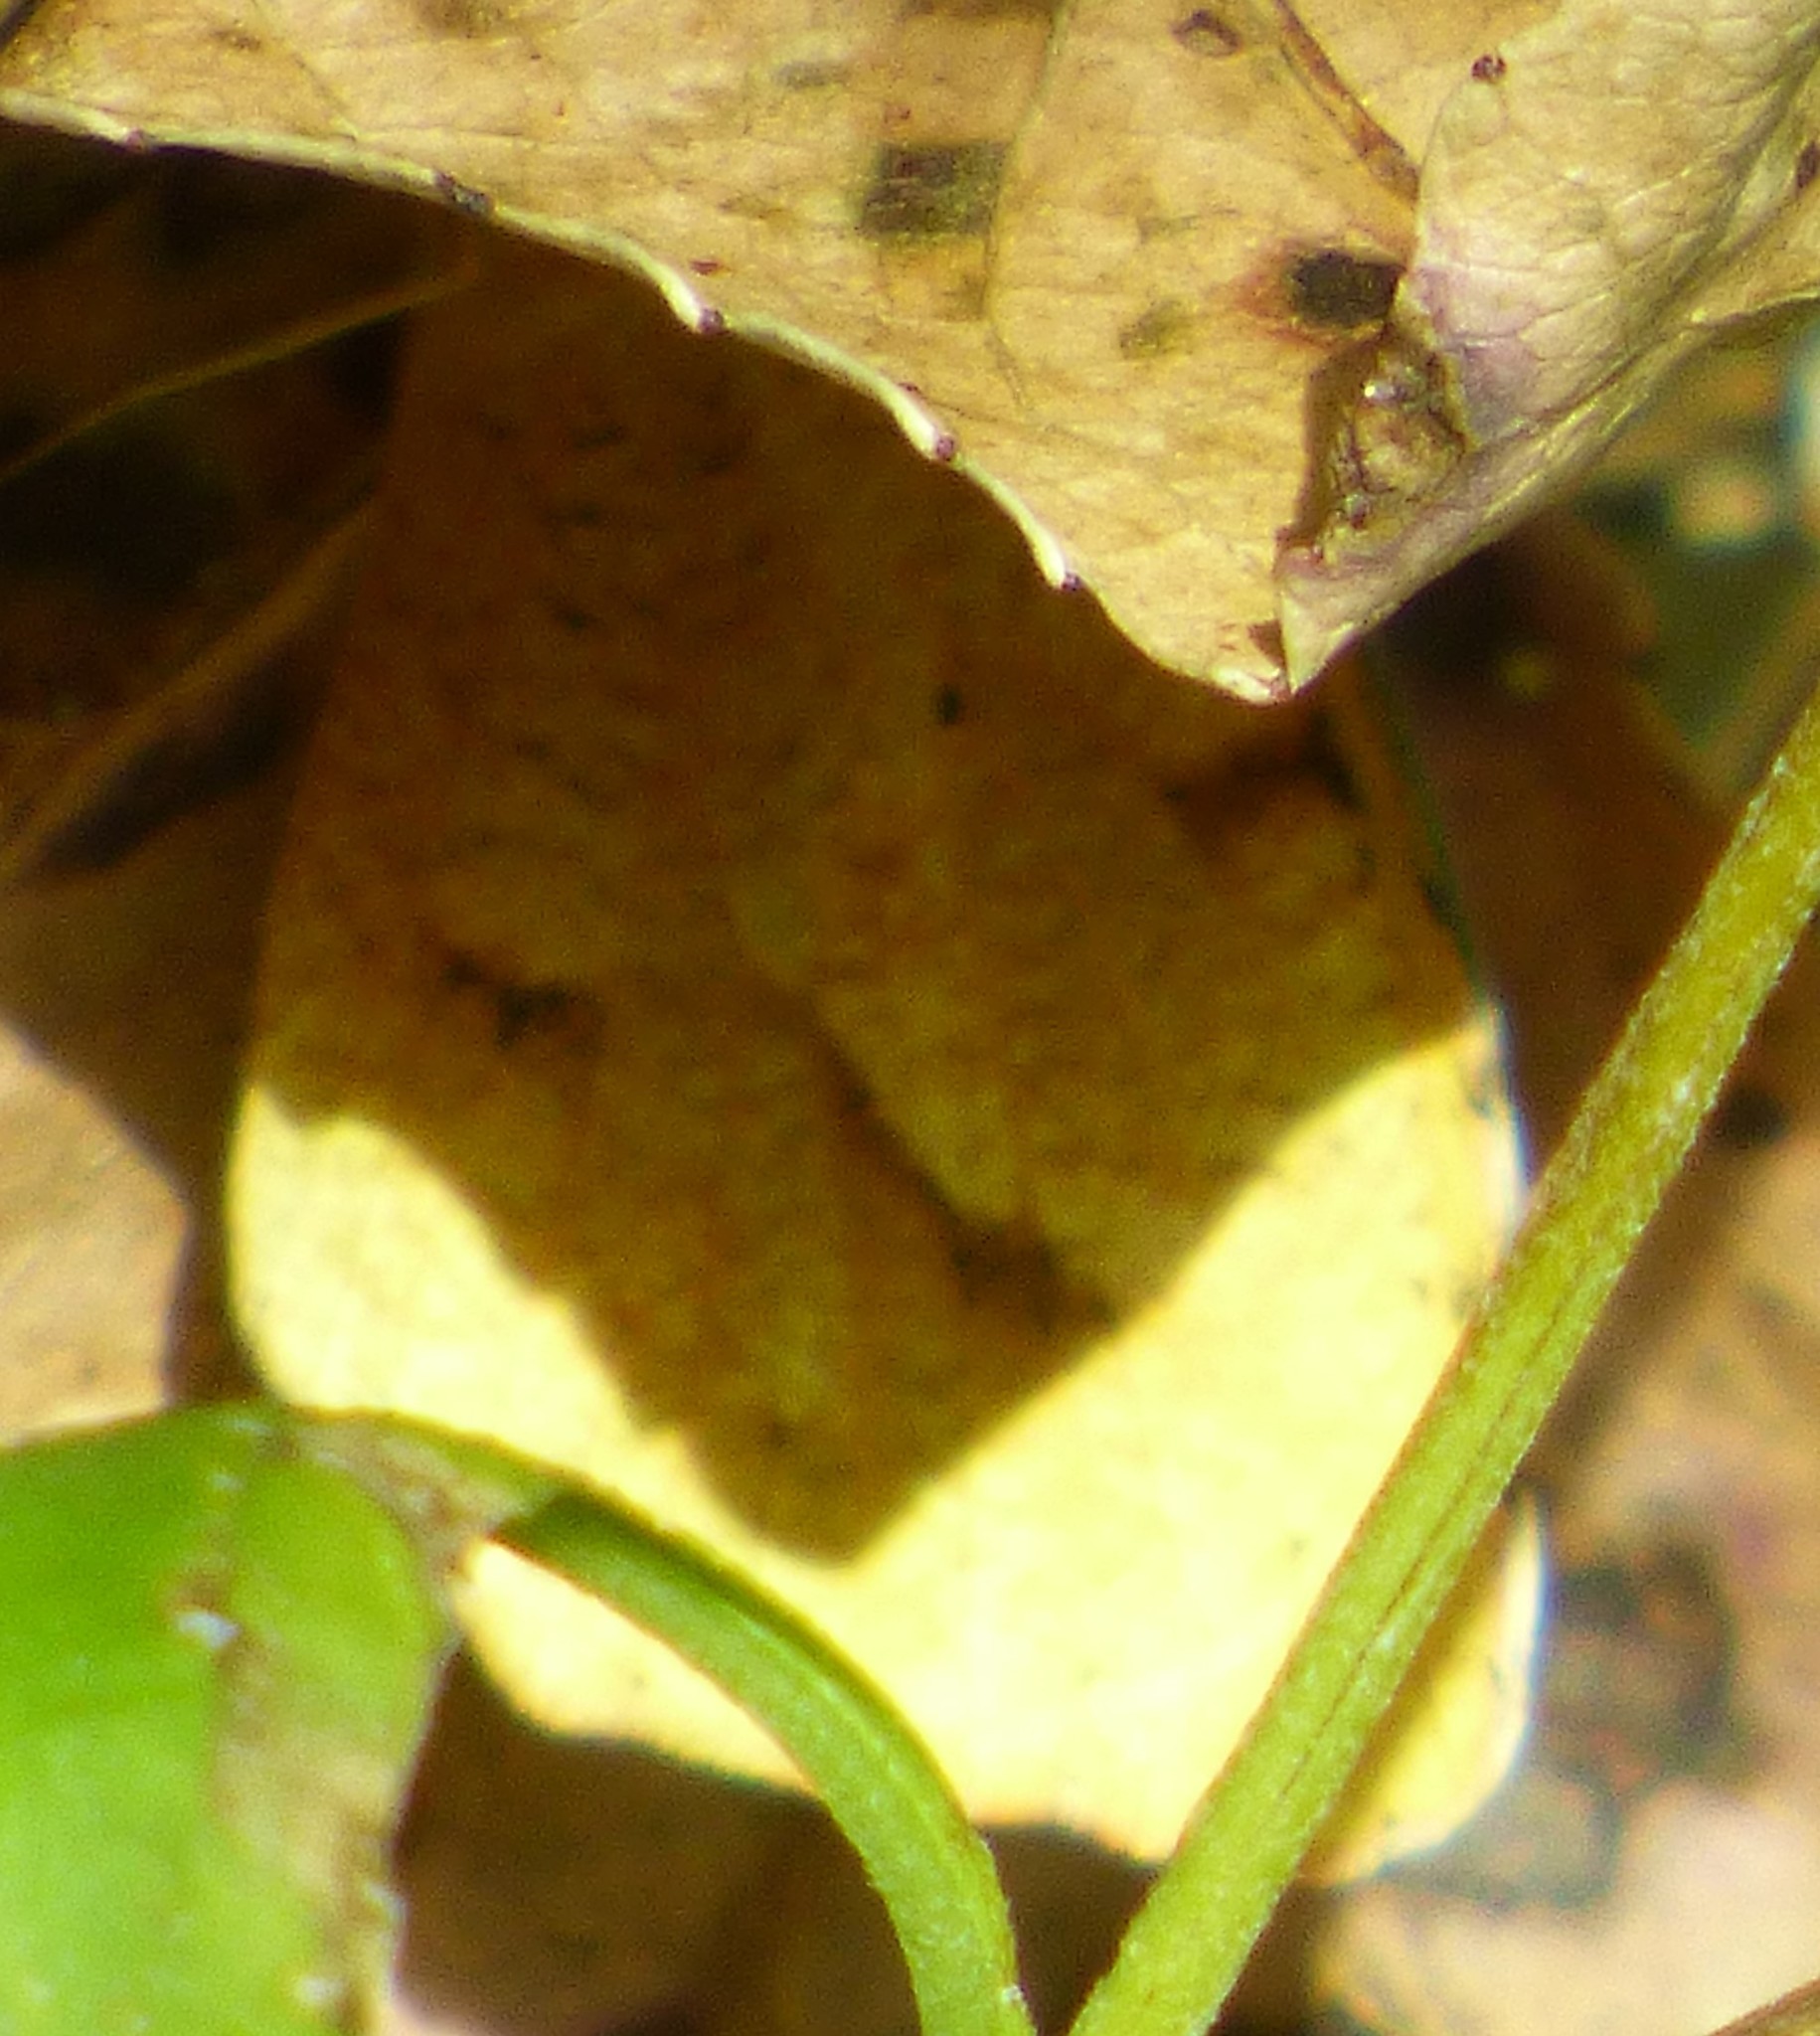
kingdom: Animalia
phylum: Arthropoda
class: Insecta
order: Lepidoptera
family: Pieridae
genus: Abaeis
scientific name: Abaeis nicippe
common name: Sleepy orange
